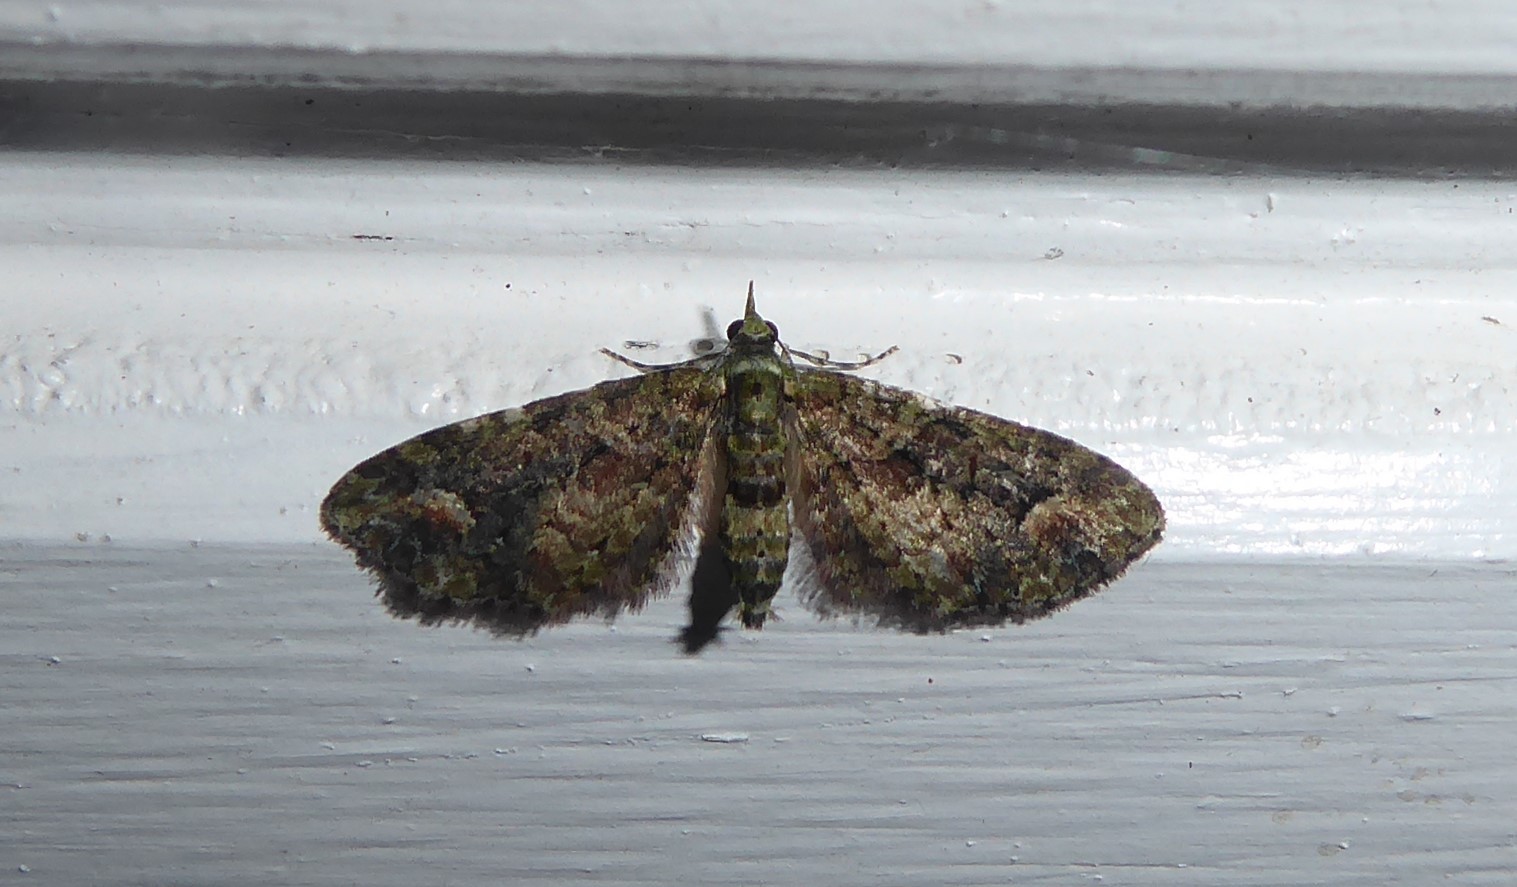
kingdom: Animalia
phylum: Arthropoda
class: Insecta
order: Lepidoptera
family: Geometridae
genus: Idaea
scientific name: Idaea mutanda
